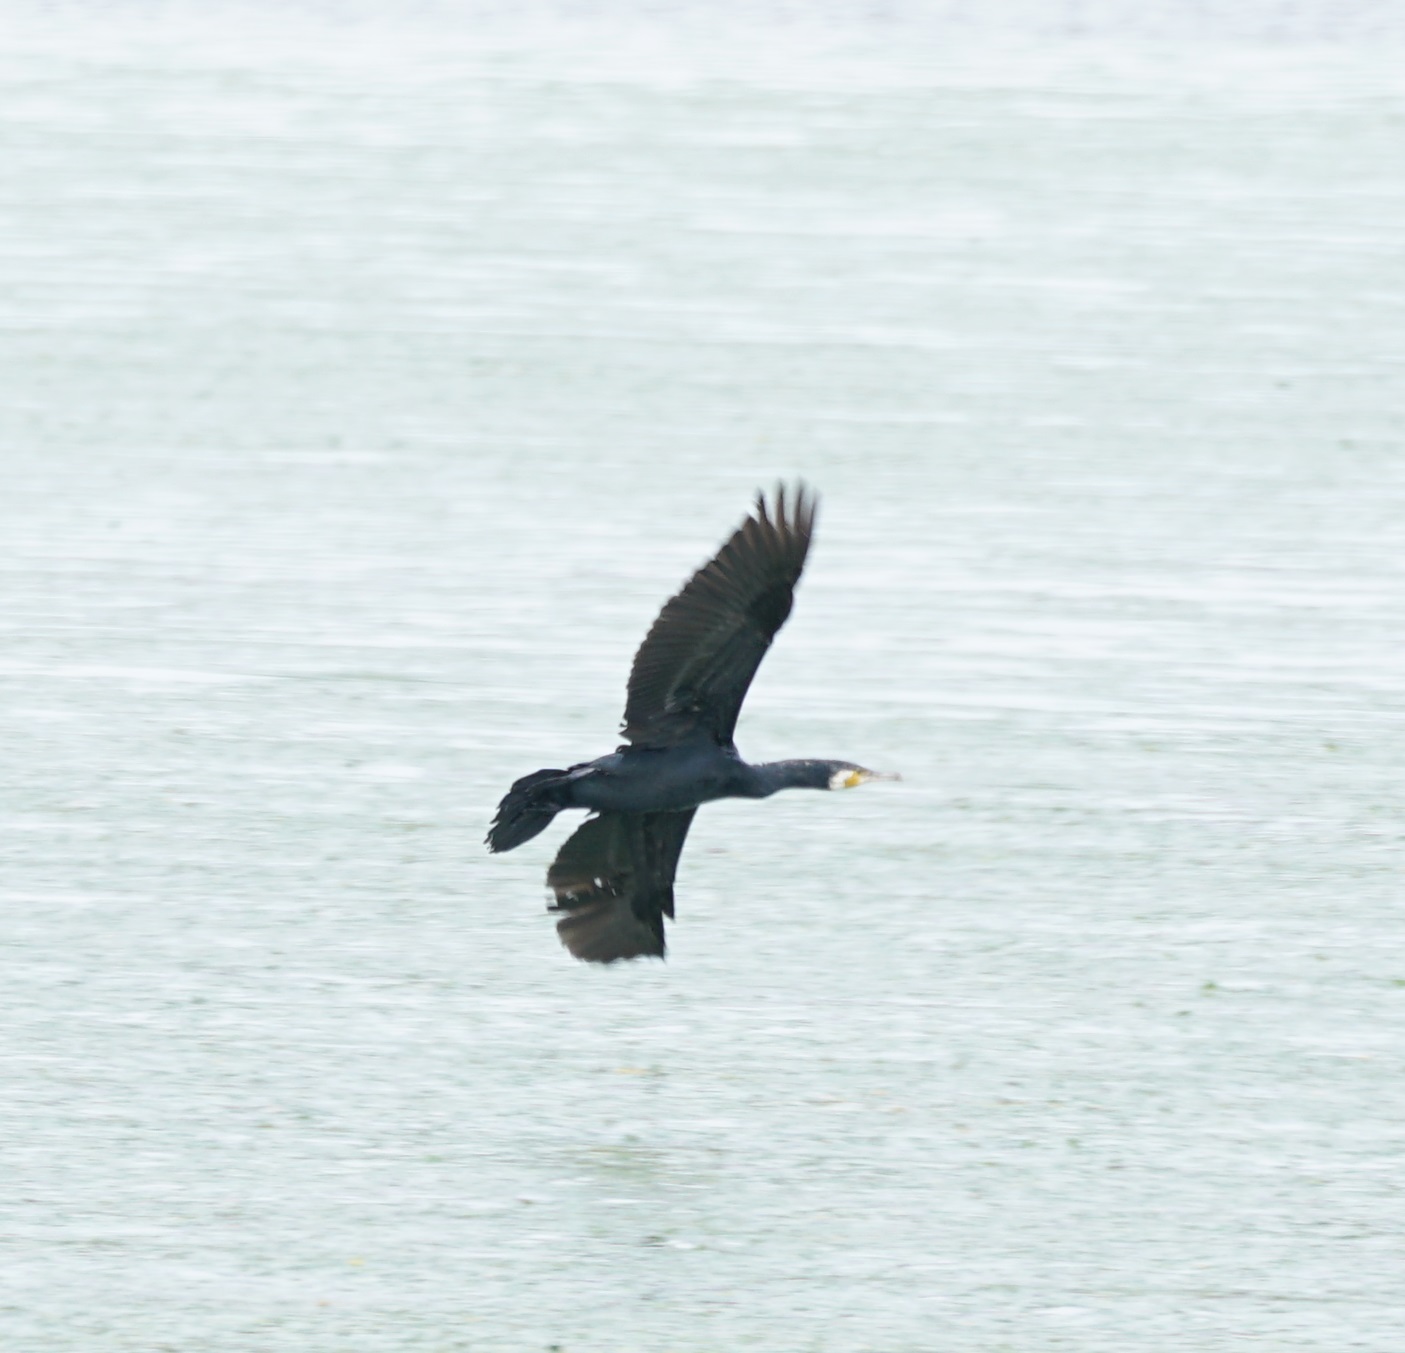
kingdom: Animalia
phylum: Chordata
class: Aves
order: Suliformes
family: Phalacrocoracidae
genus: Phalacrocorax
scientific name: Phalacrocorax carbo
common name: Great cormorant
